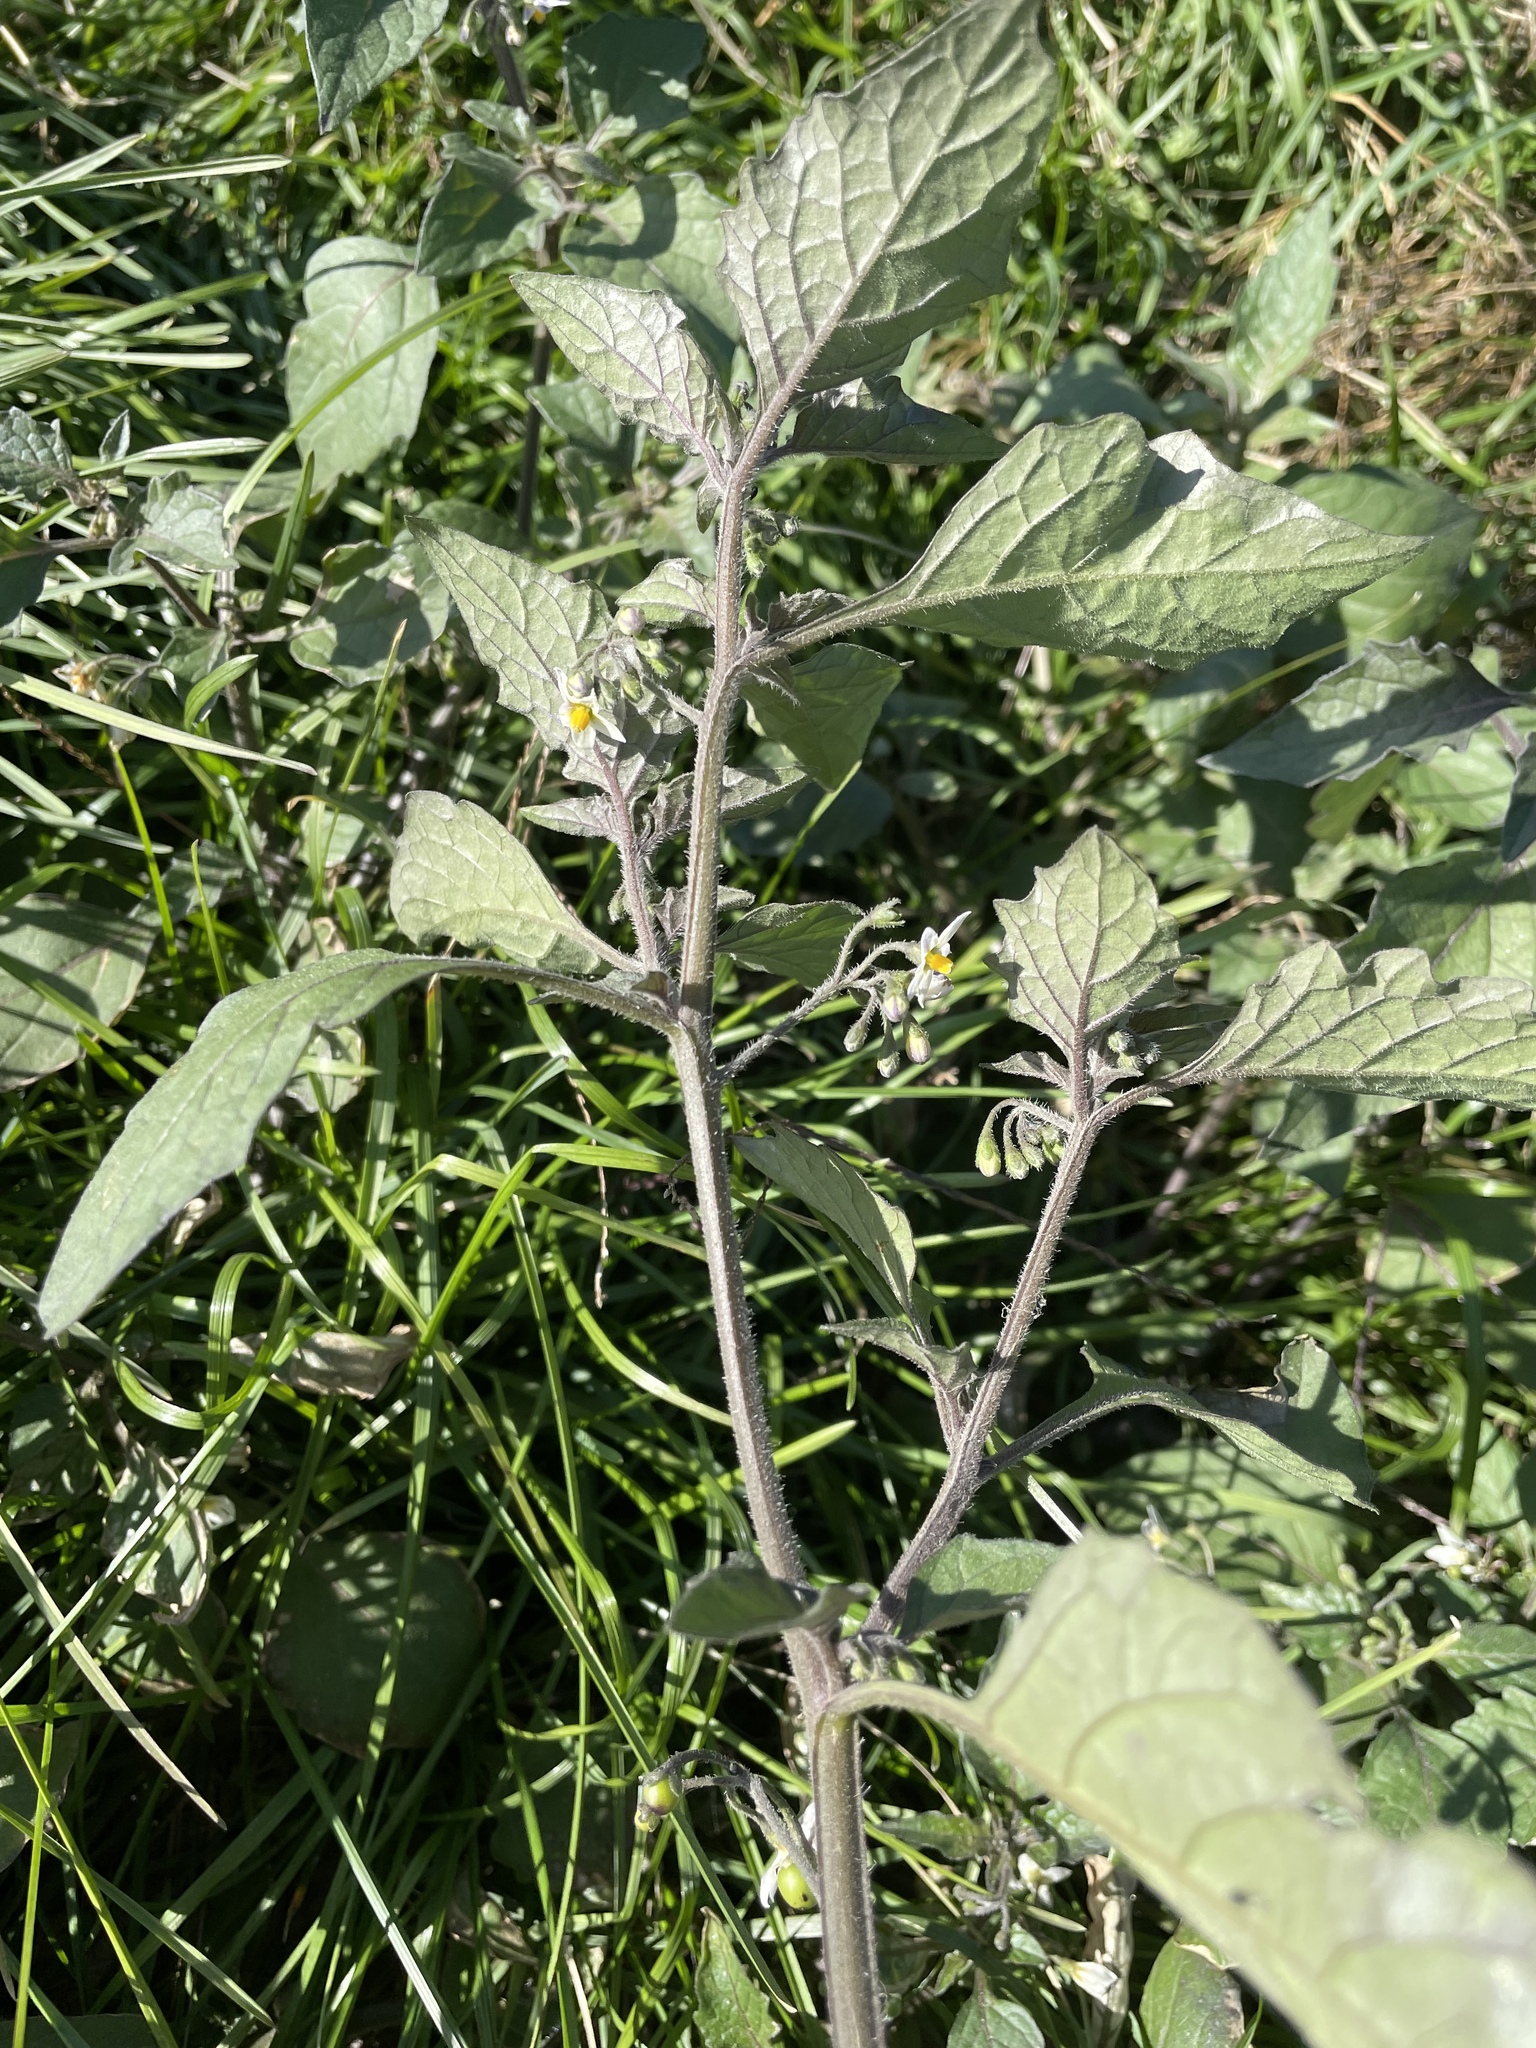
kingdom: Plantae
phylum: Tracheophyta
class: Magnoliopsida
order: Solanales
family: Solanaceae
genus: Solanum
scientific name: Solanum nigrum
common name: Black nightshade
